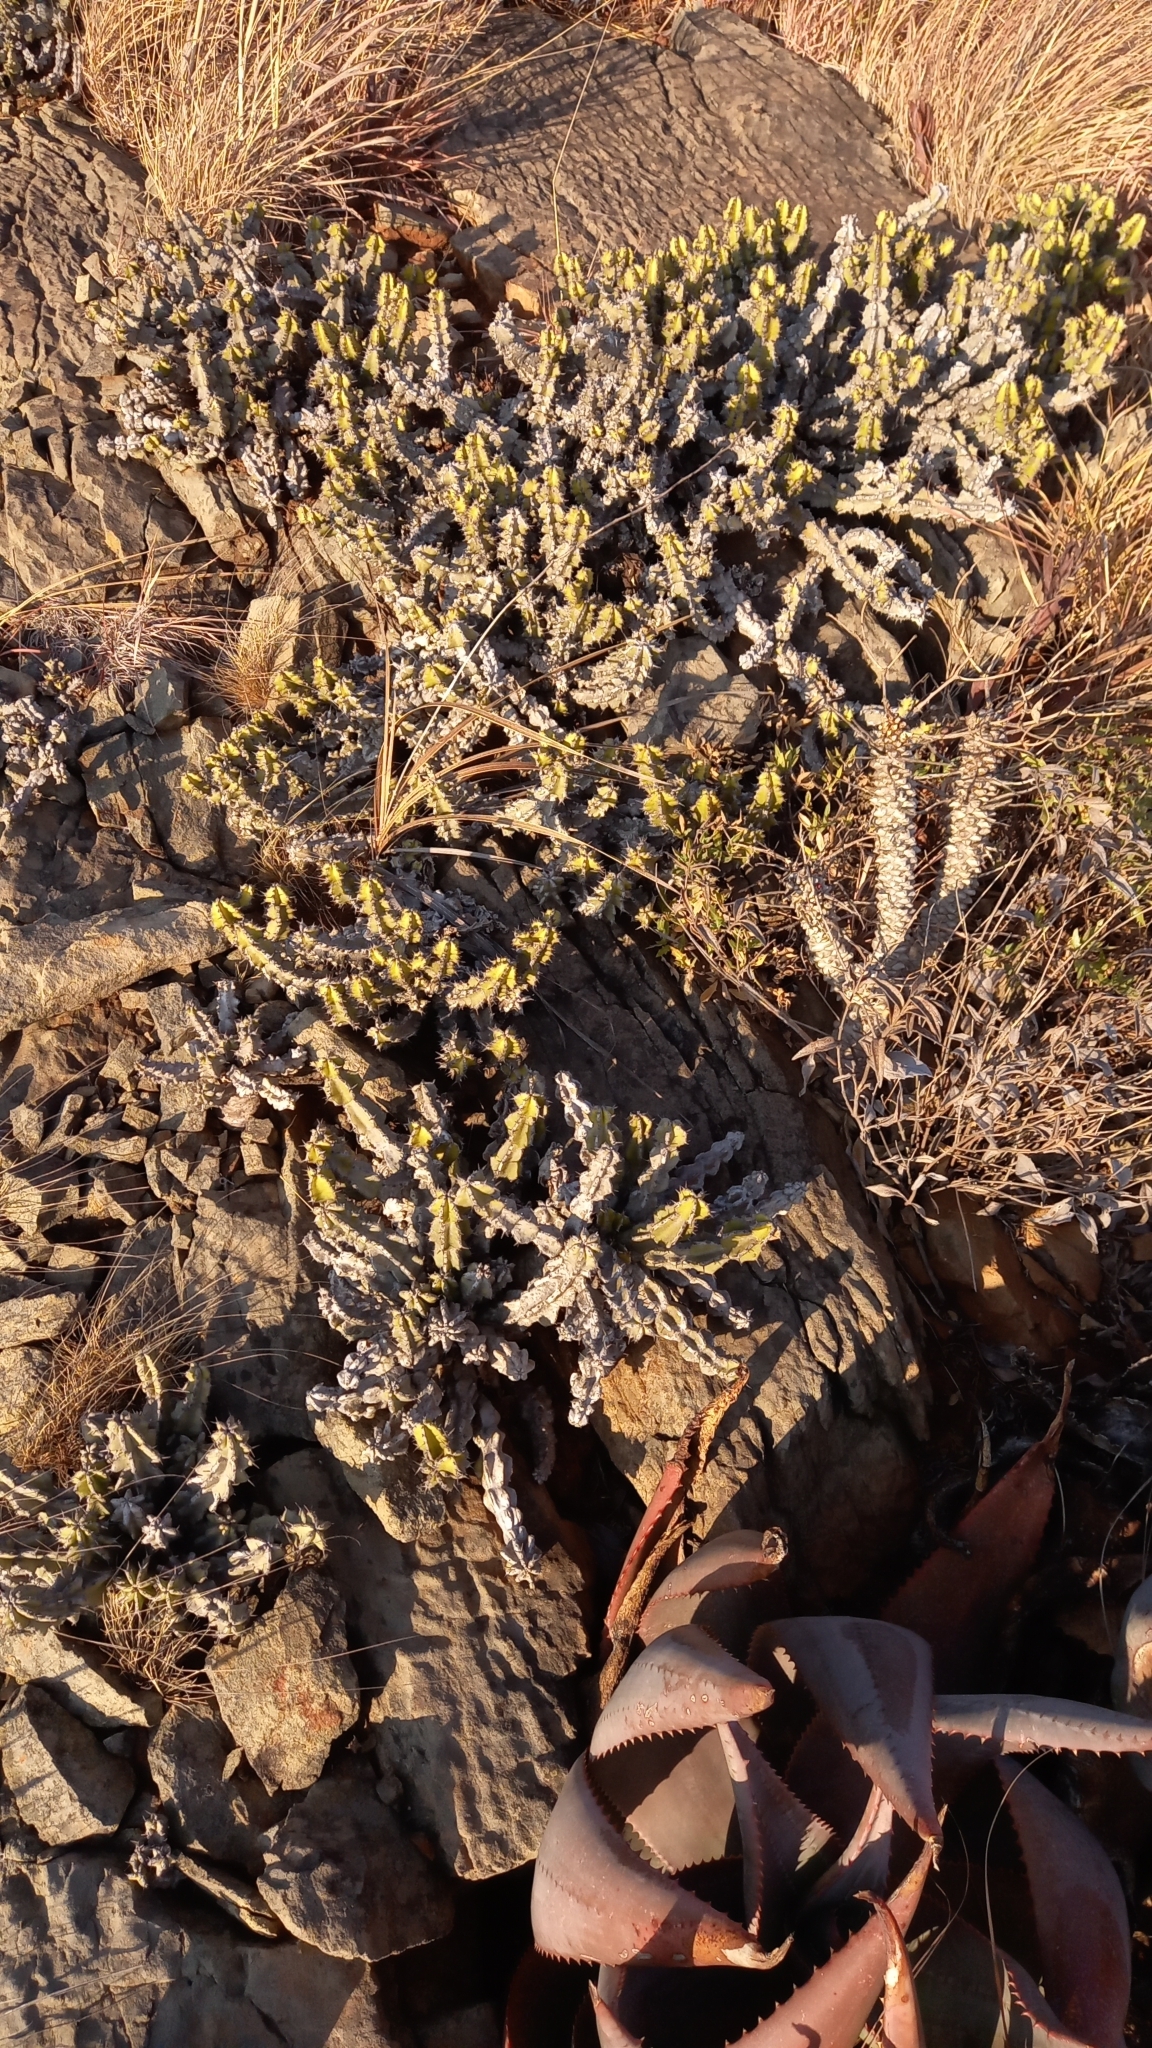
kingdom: Plantae
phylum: Tracheophyta
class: Magnoliopsida
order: Malpighiales
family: Euphorbiaceae
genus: Euphorbia
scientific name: Euphorbia memoralis
